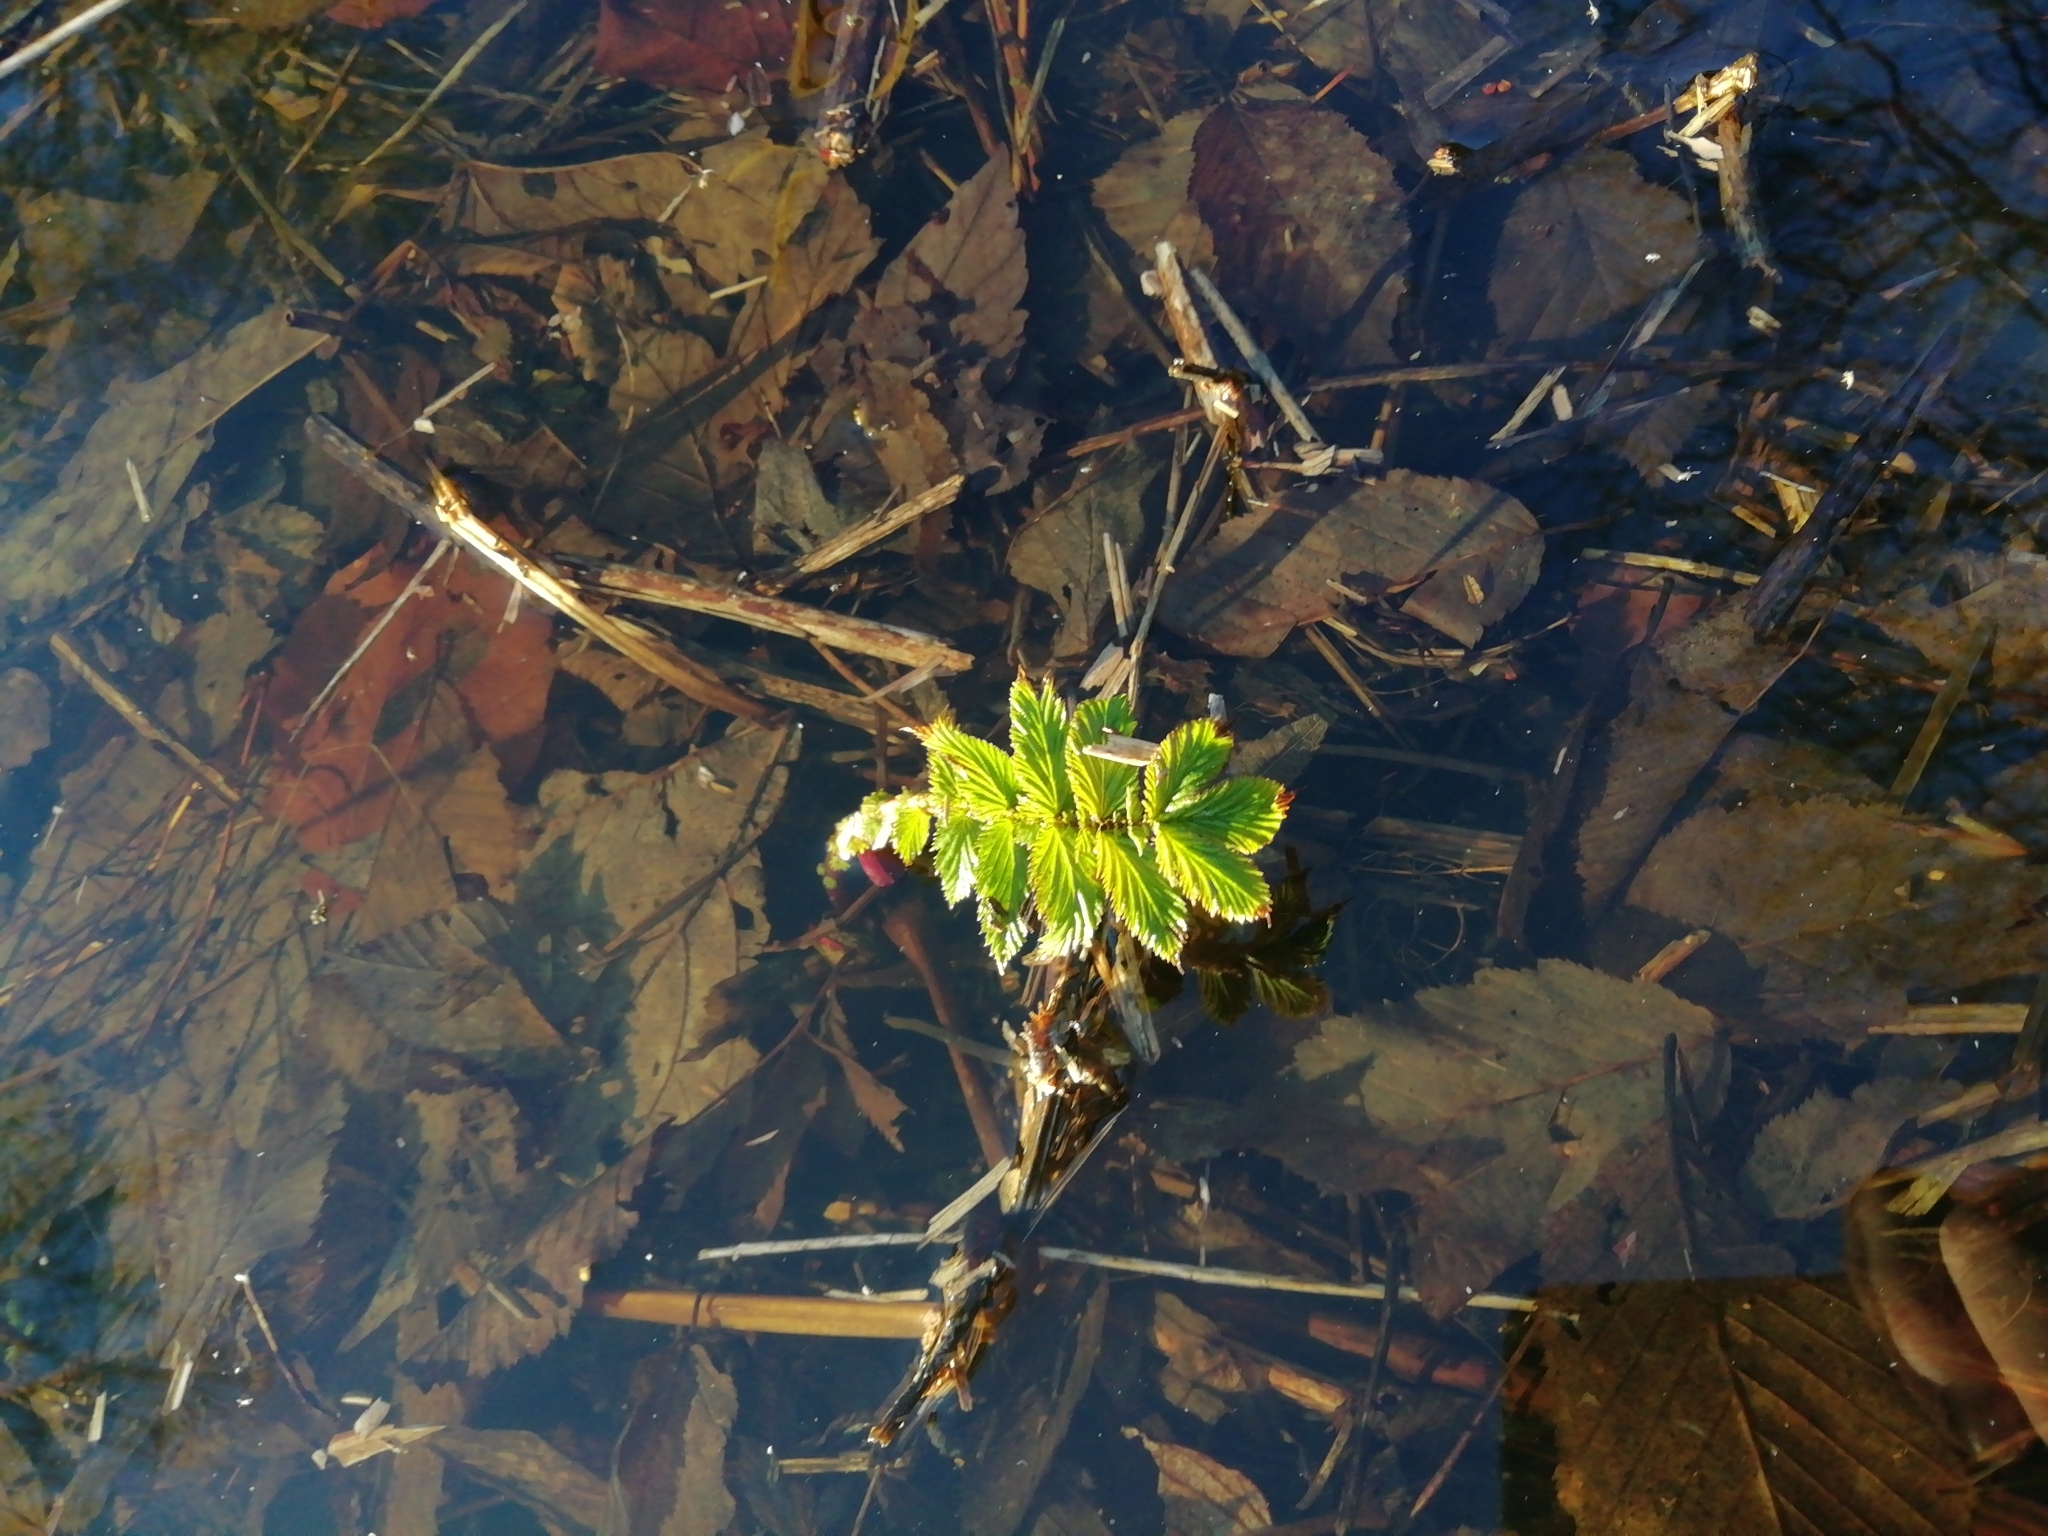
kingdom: Plantae
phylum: Tracheophyta
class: Magnoliopsida
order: Rosales
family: Rosaceae
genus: Filipendula
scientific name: Filipendula ulmaria
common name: Meadowsweet
